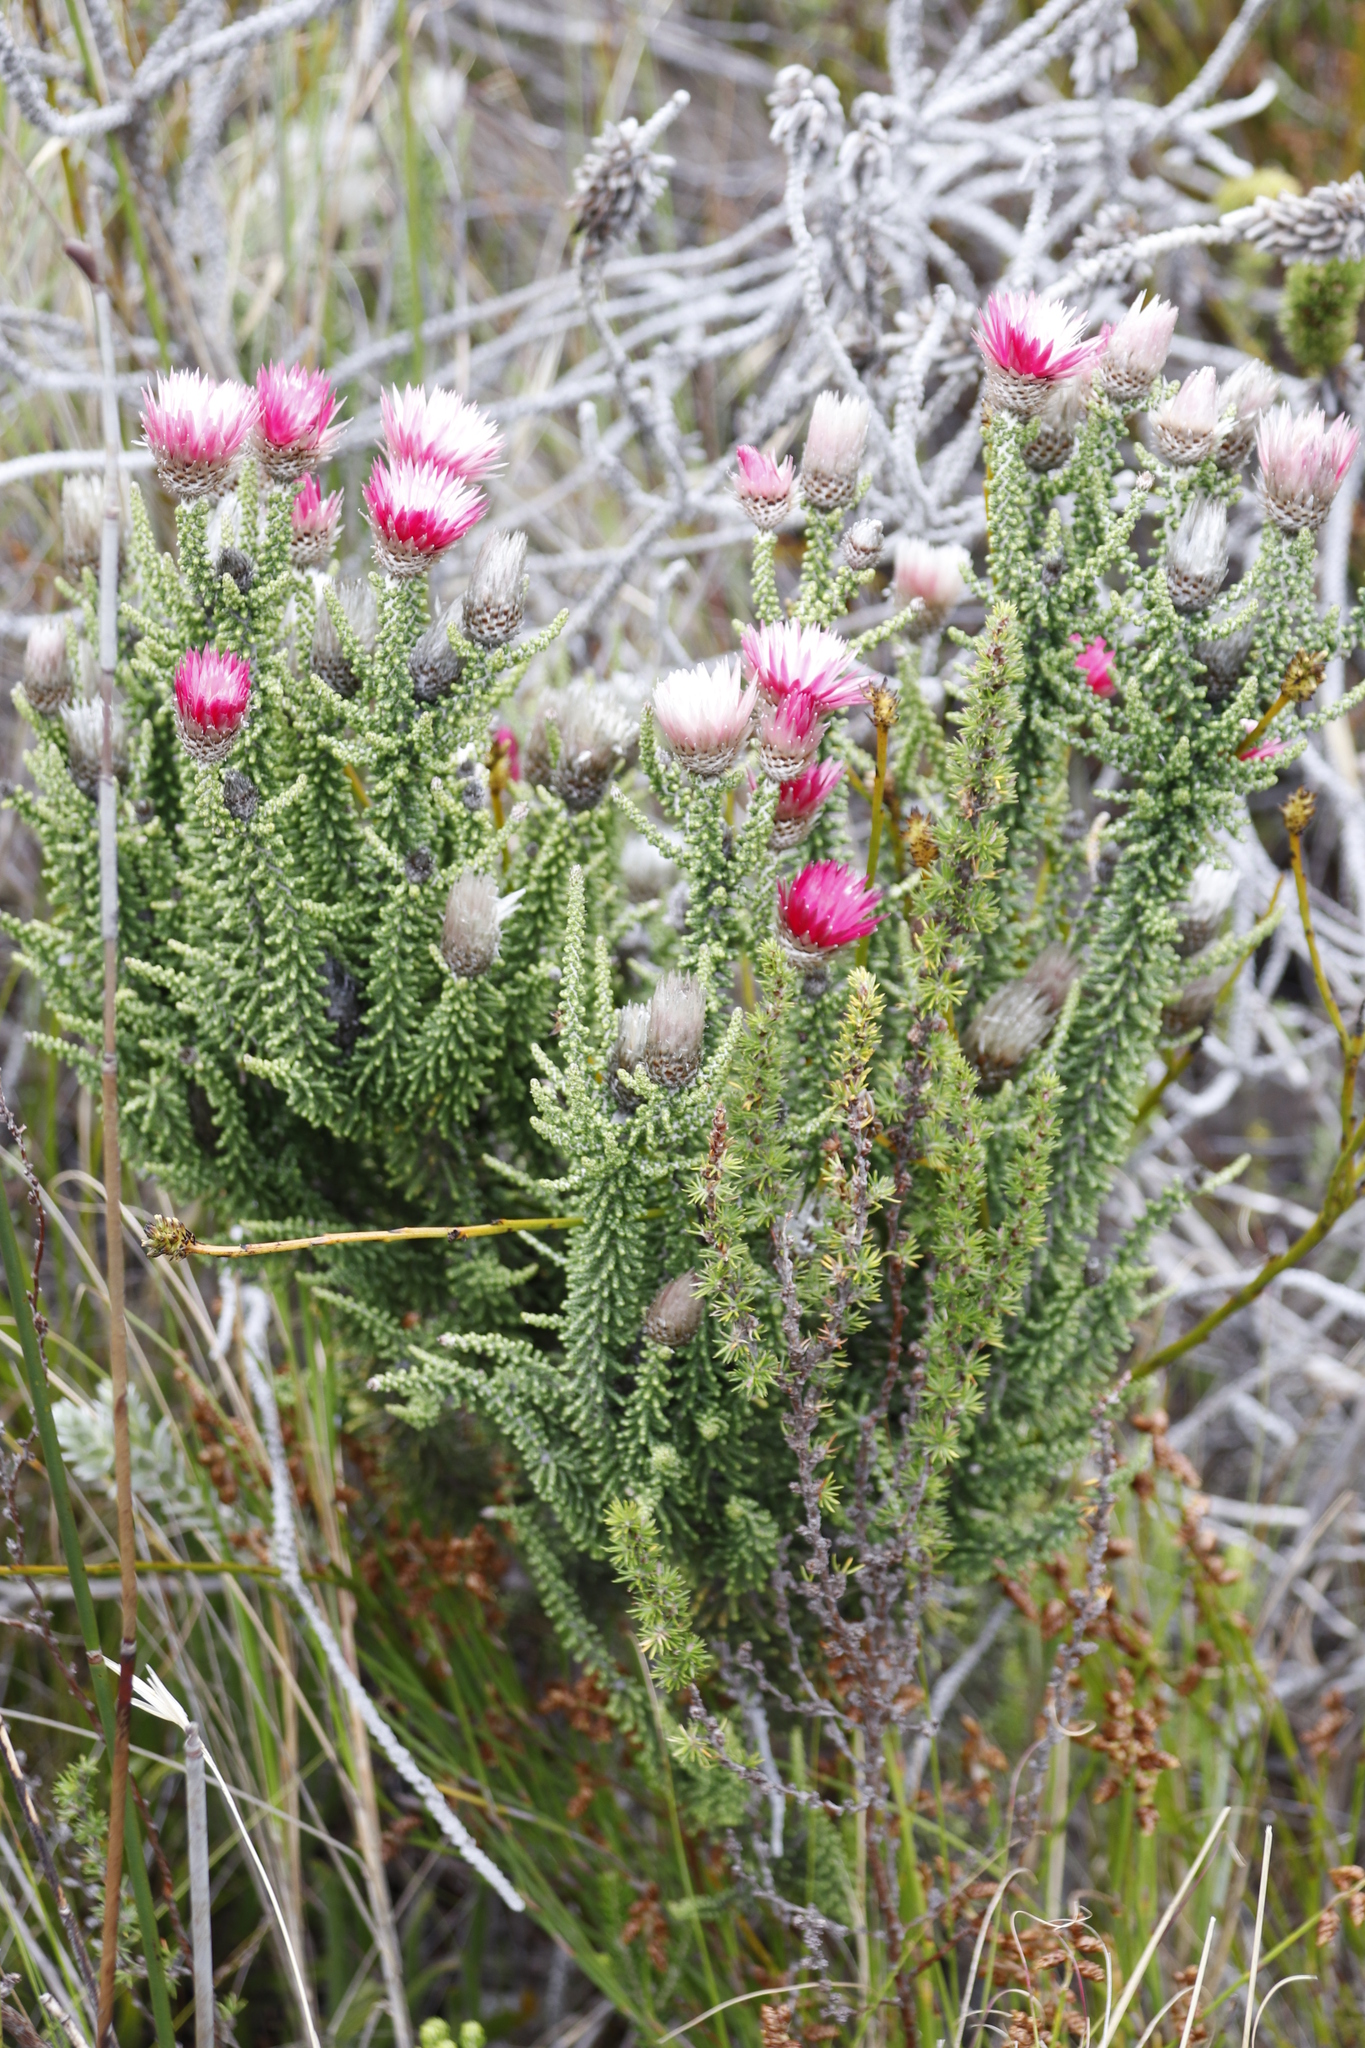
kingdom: Plantae
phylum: Tracheophyta
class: Magnoliopsida
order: Asterales
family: Asteraceae
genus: Phaenocoma
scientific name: Phaenocoma prolifera
